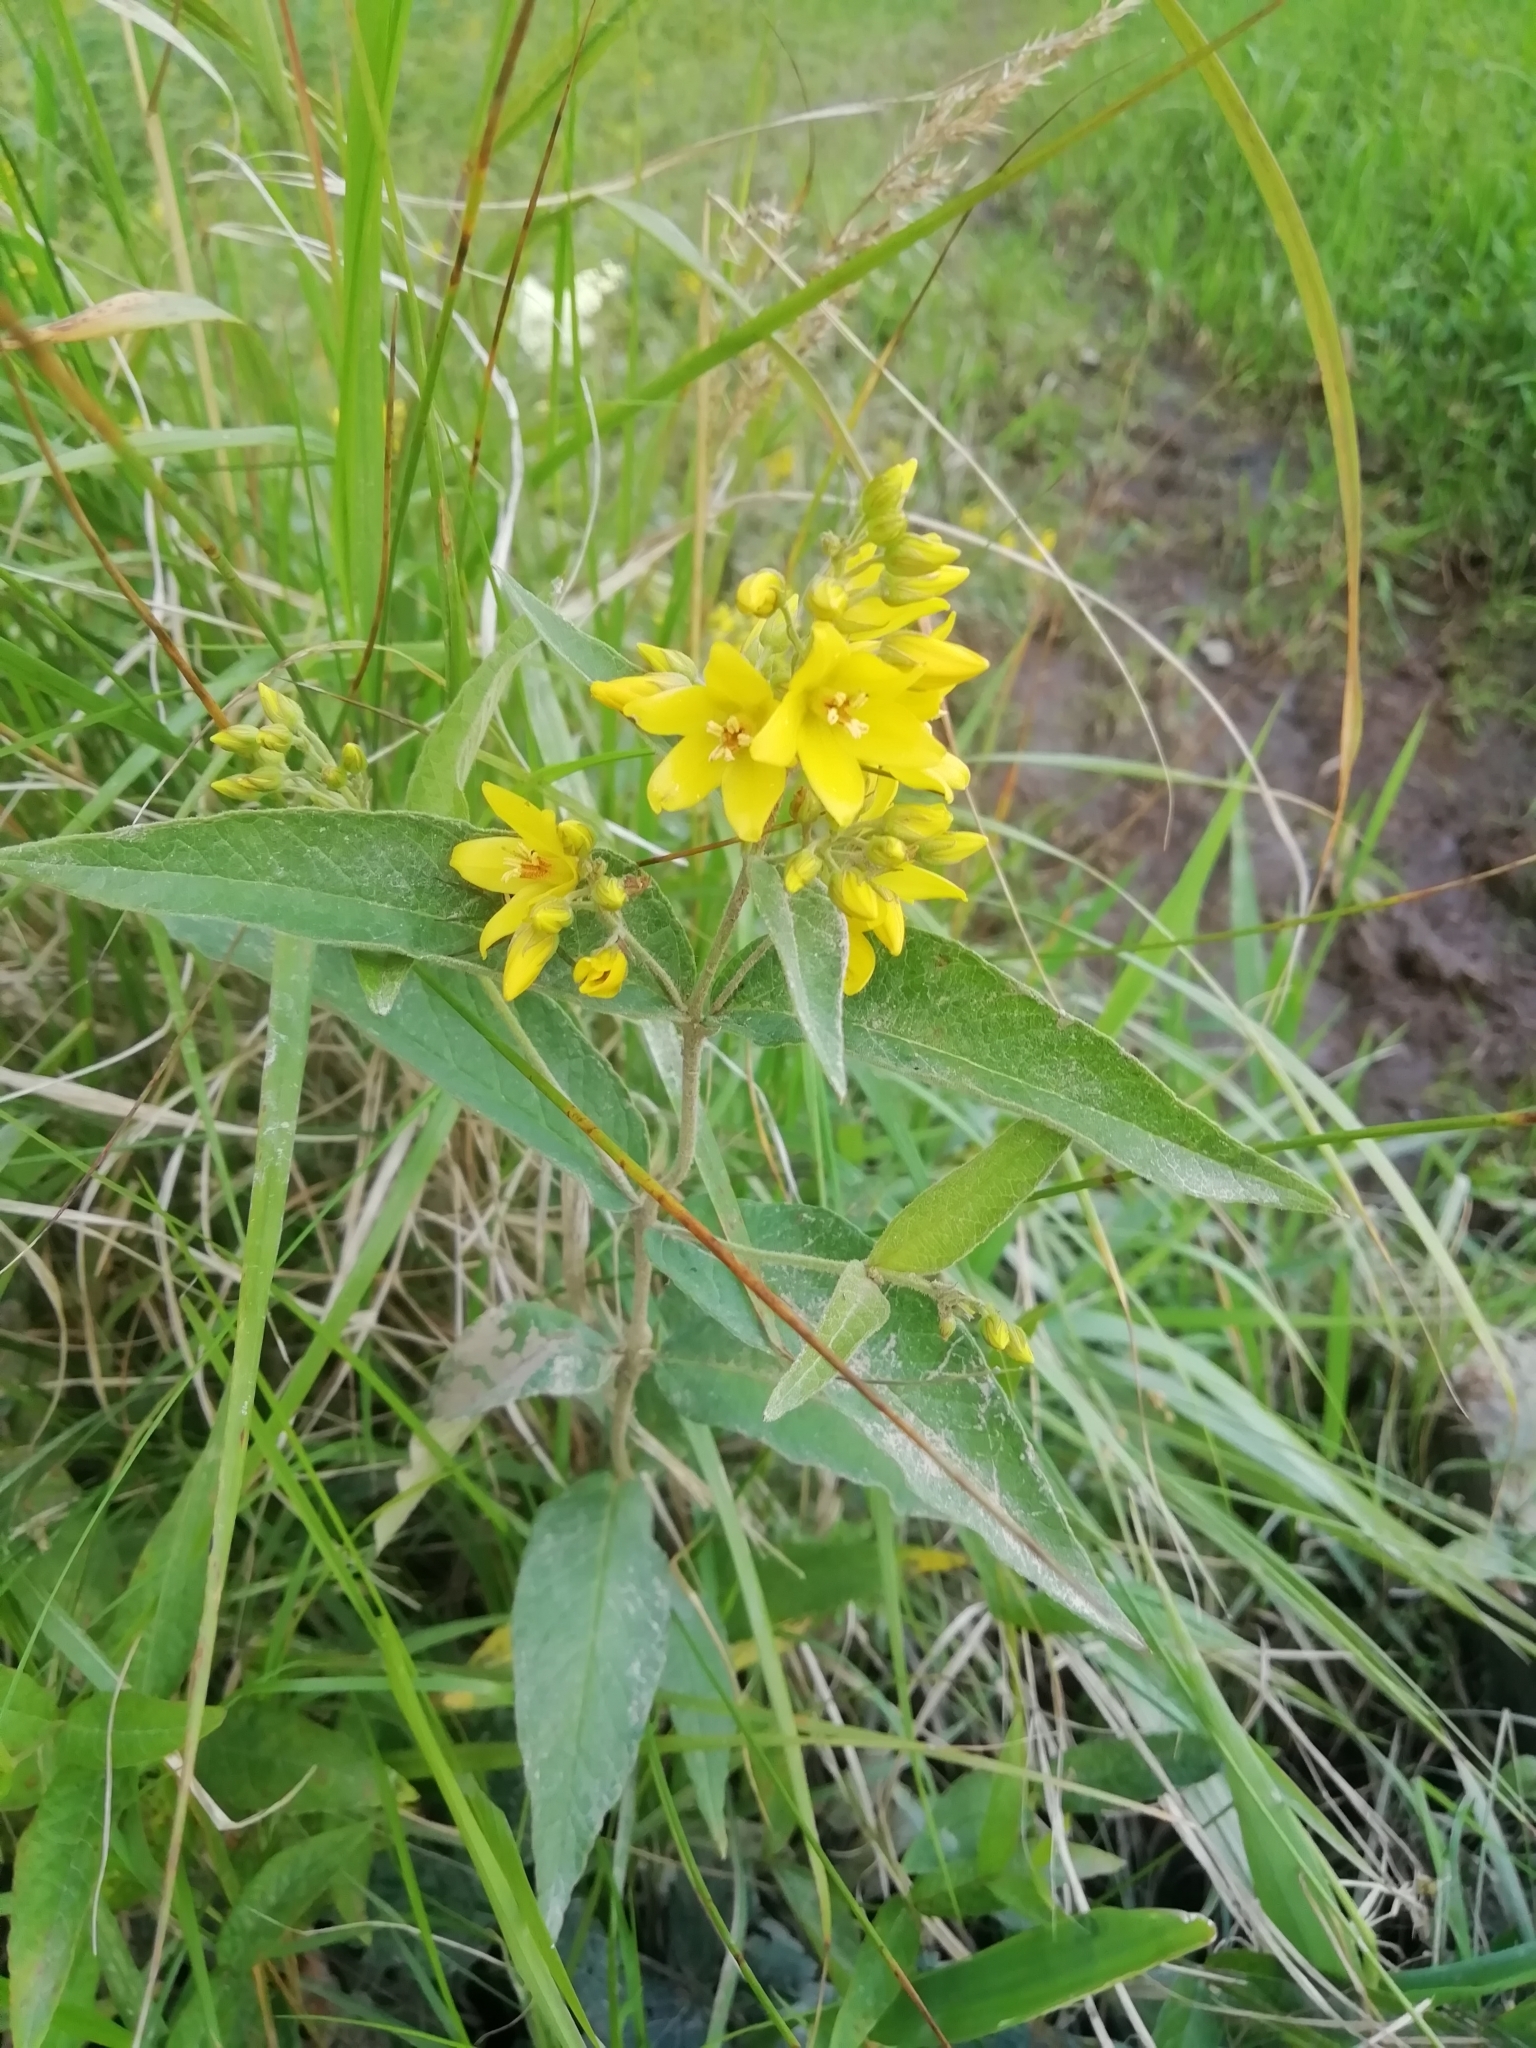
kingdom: Plantae
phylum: Tracheophyta
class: Magnoliopsida
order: Ericales
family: Primulaceae
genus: Lysimachia
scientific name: Lysimachia vulgaris
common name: Yellow loosestrife
